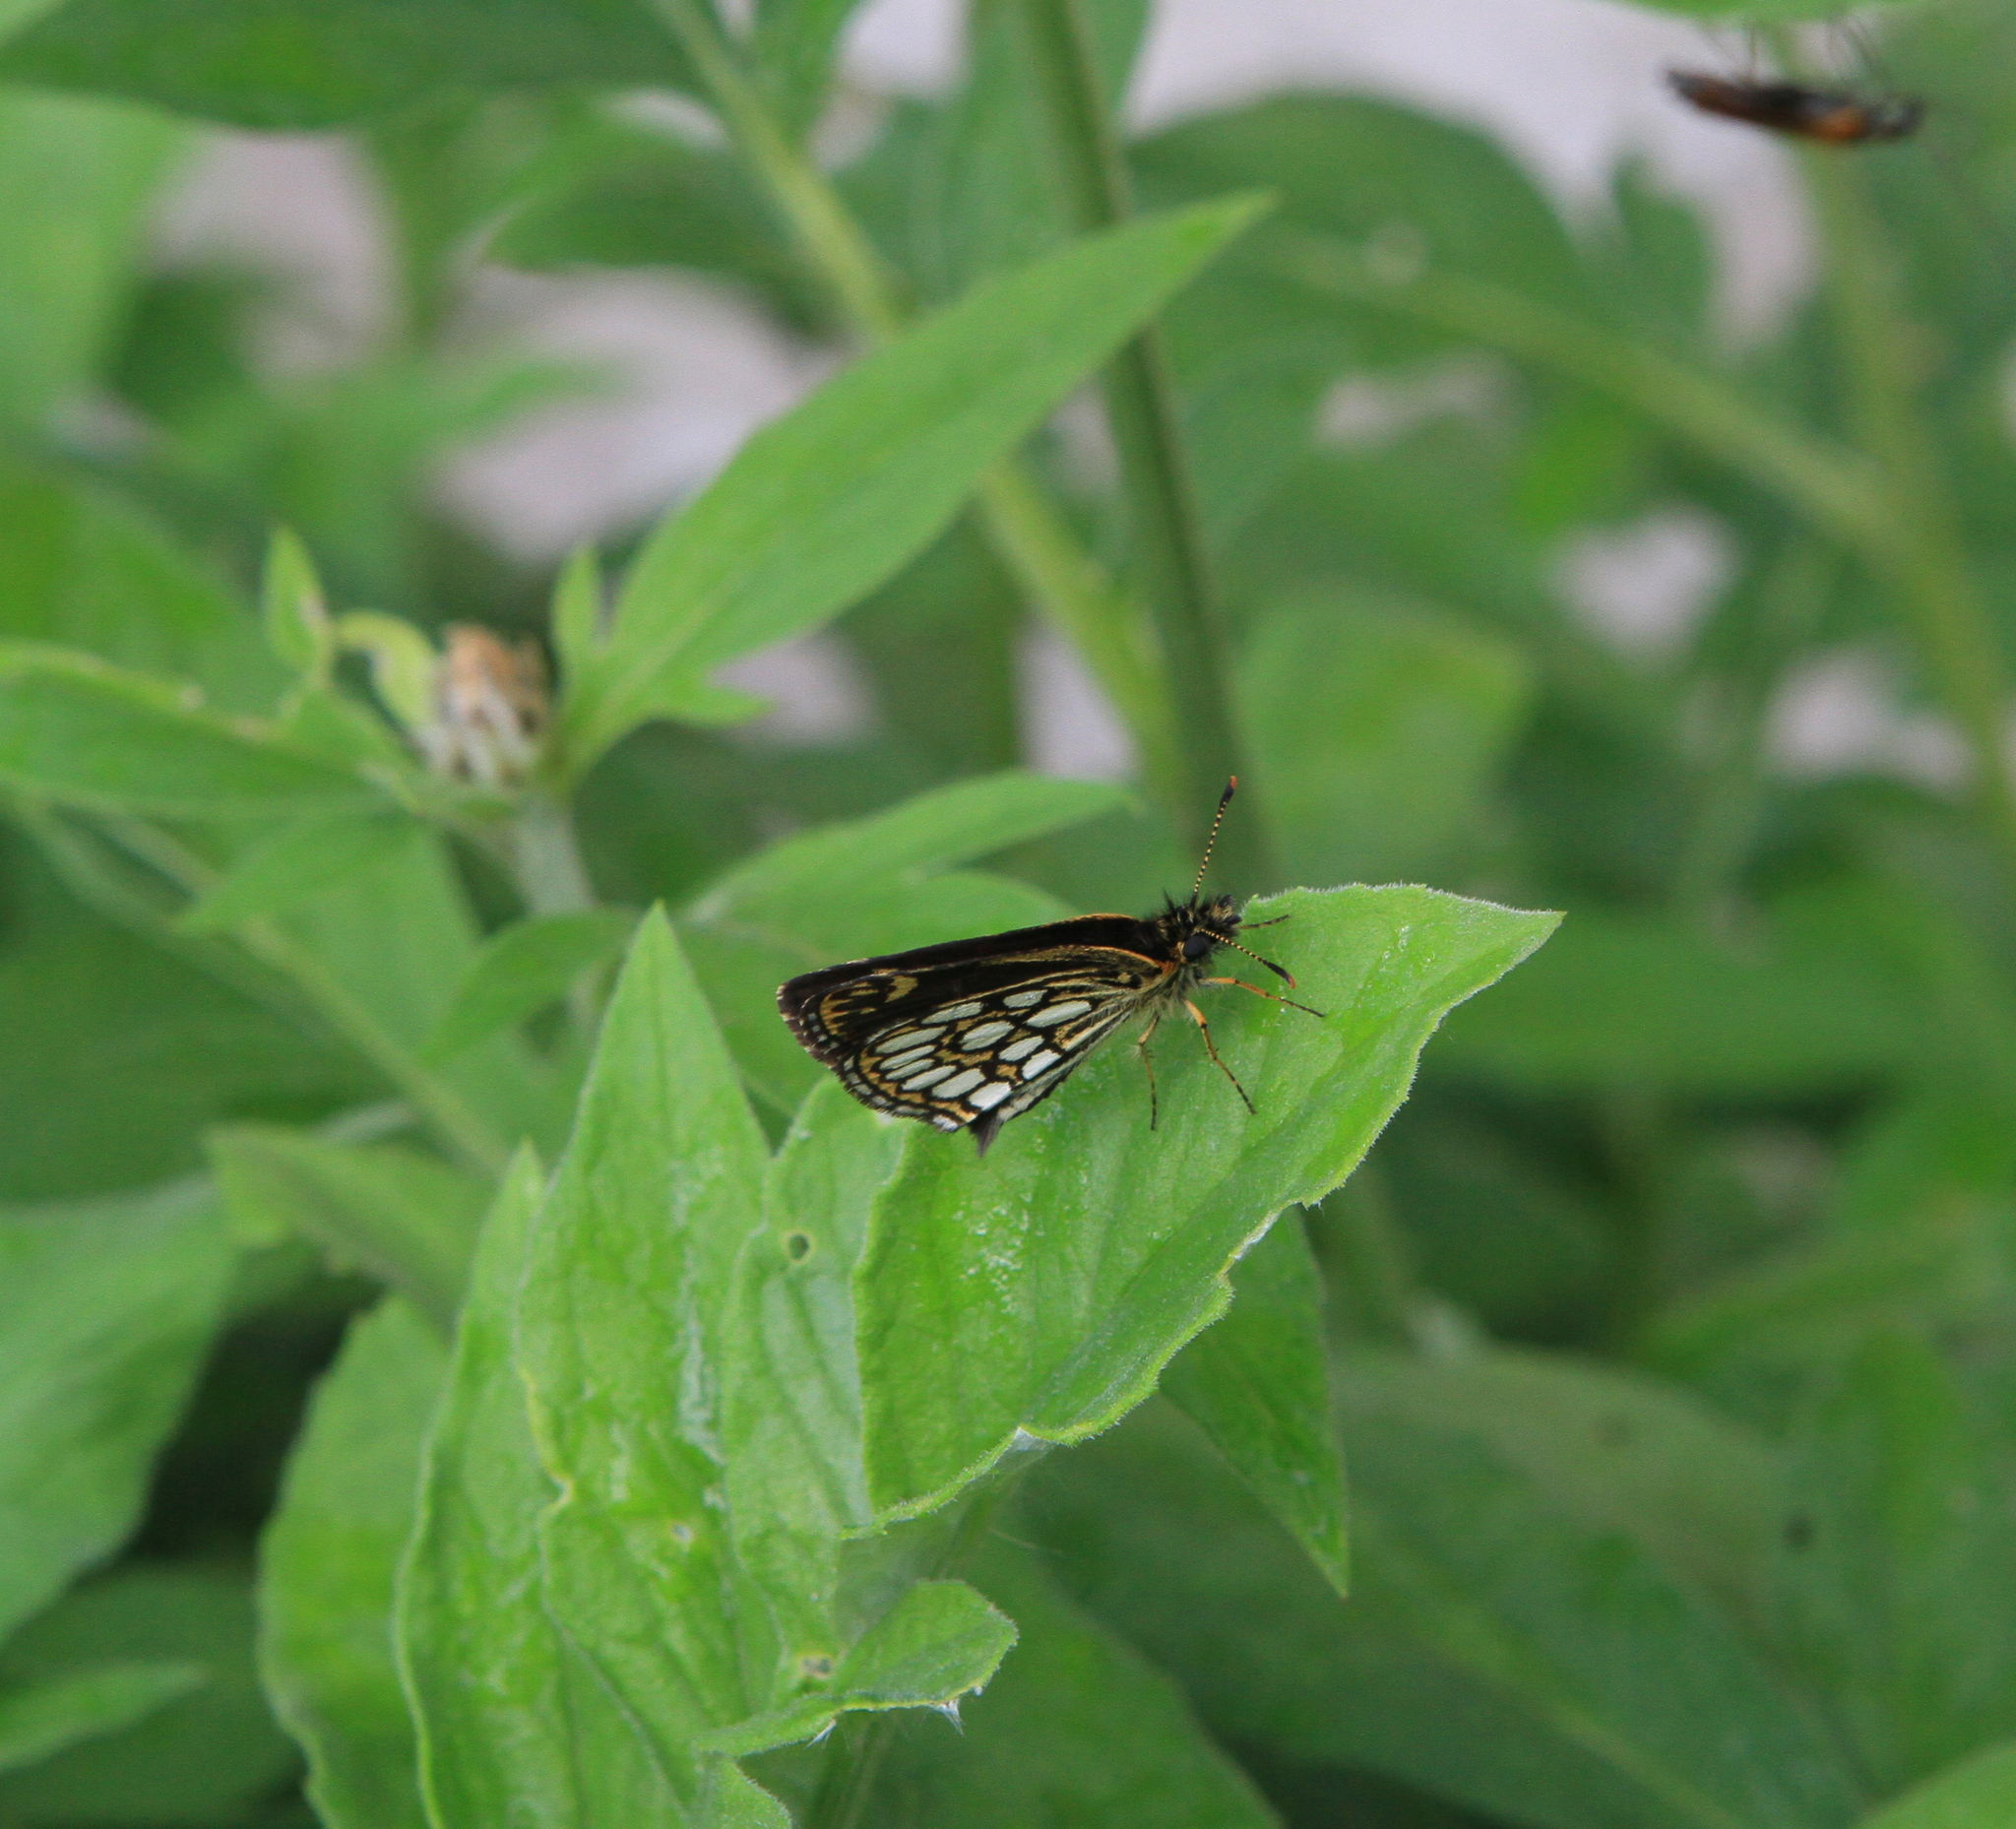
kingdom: Animalia
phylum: Arthropoda
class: Insecta
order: Lepidoptera
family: Hesperiidae
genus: Heteropterus
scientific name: Heteropterus morpheus
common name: Large chequered skipper
